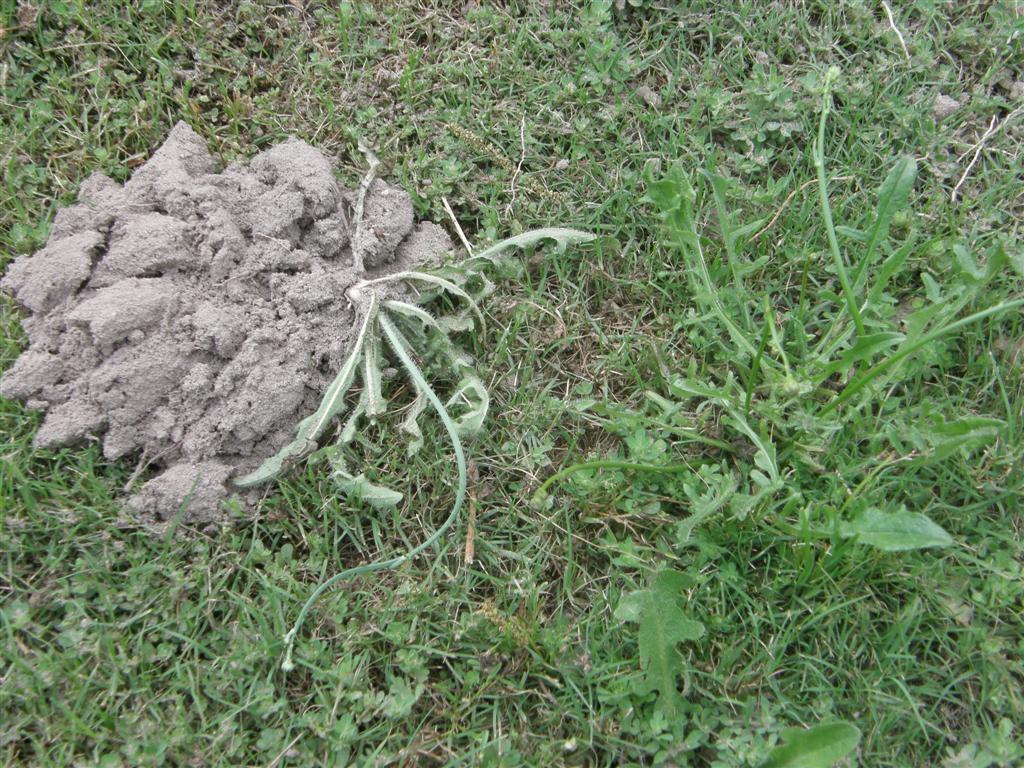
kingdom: Animalia
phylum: Chordata
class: Mammalia
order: Rodentia
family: Bathyergidae
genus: Georychus
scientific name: Georychus capensis
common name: Cape mole-rat
